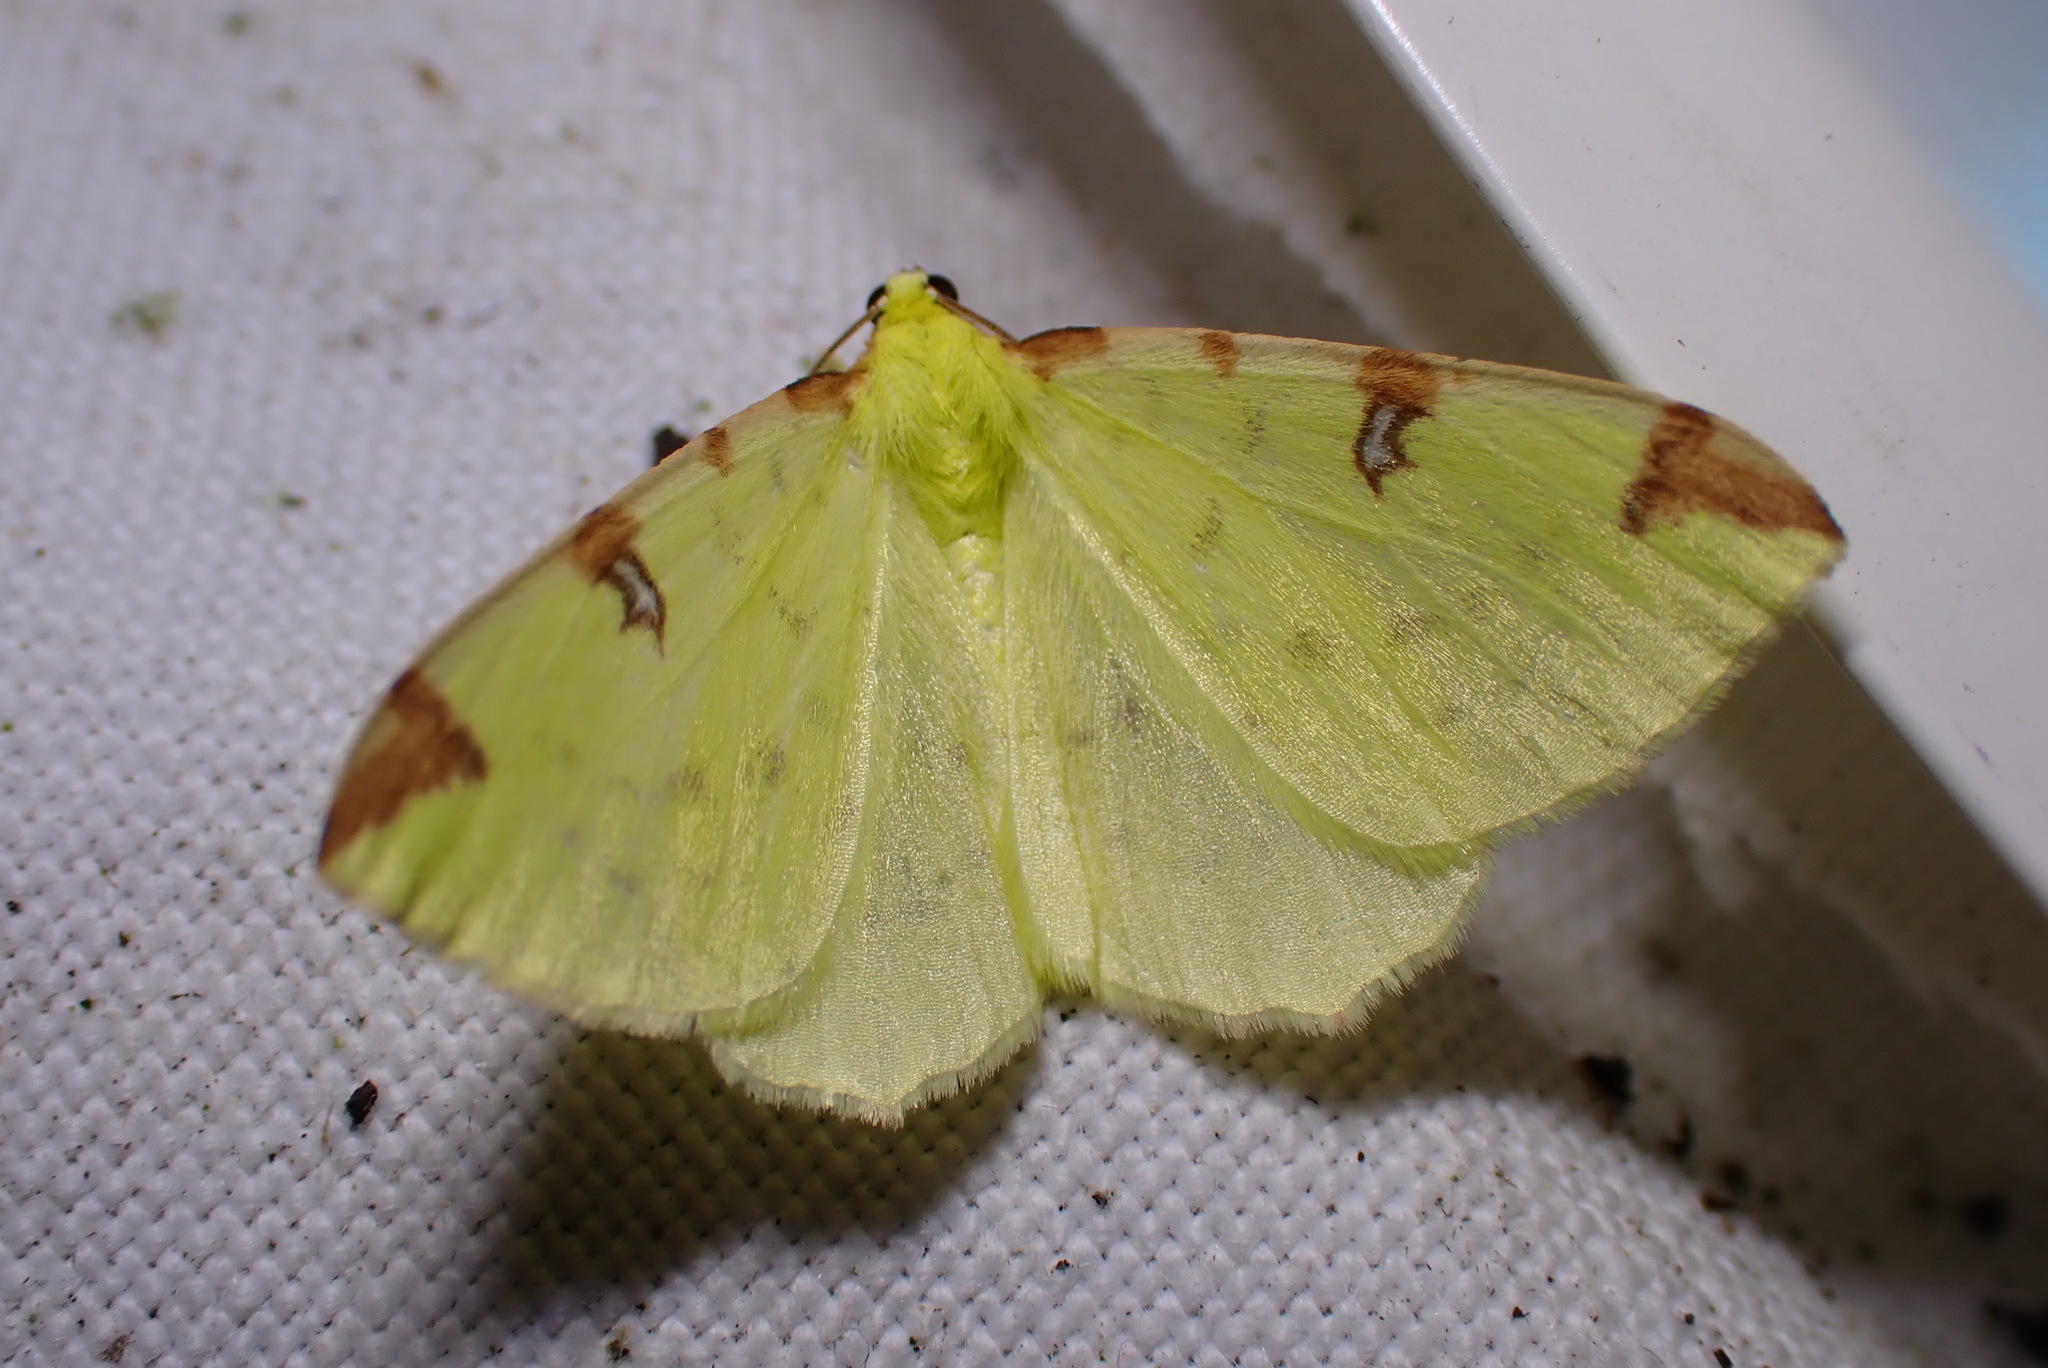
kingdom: Animalia
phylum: Arthropoda
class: Insecta
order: Lepidoptera
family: Geometridae
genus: Opisthograptis
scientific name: Opisthograptis luteolata
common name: Brimstone moth
